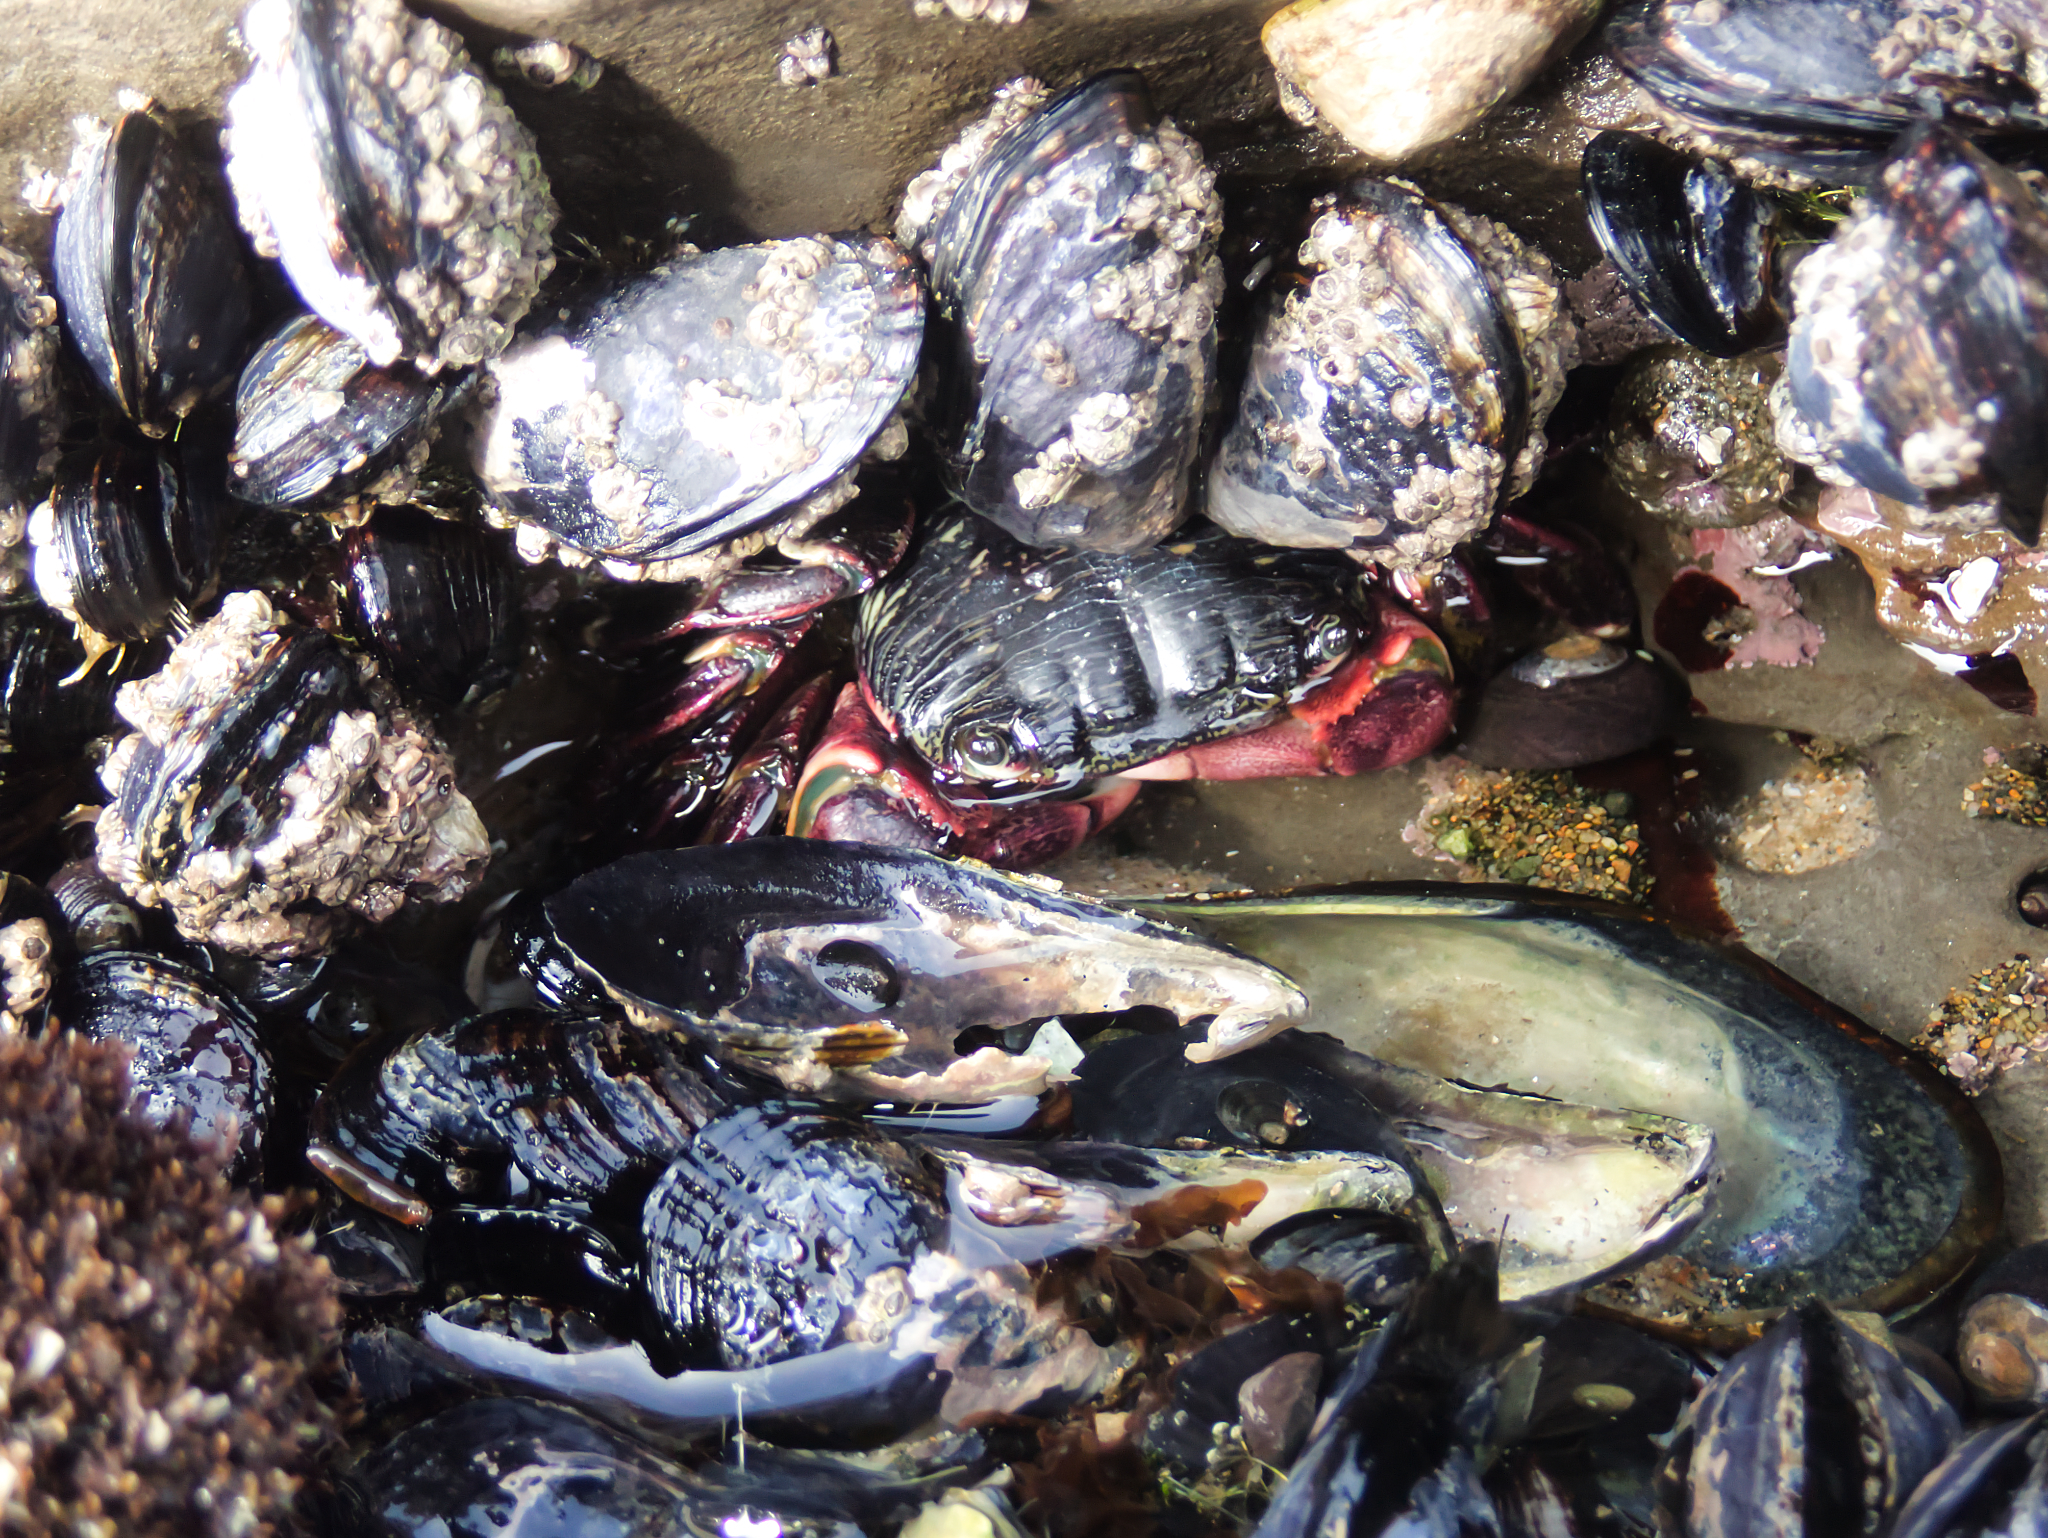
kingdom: Animalia
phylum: Arthropoda
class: Malacostraca
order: Decapoda
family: Grapsidae
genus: Pachygrapsus
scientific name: Pachygrapsus crassipes
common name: Striped shore crab
